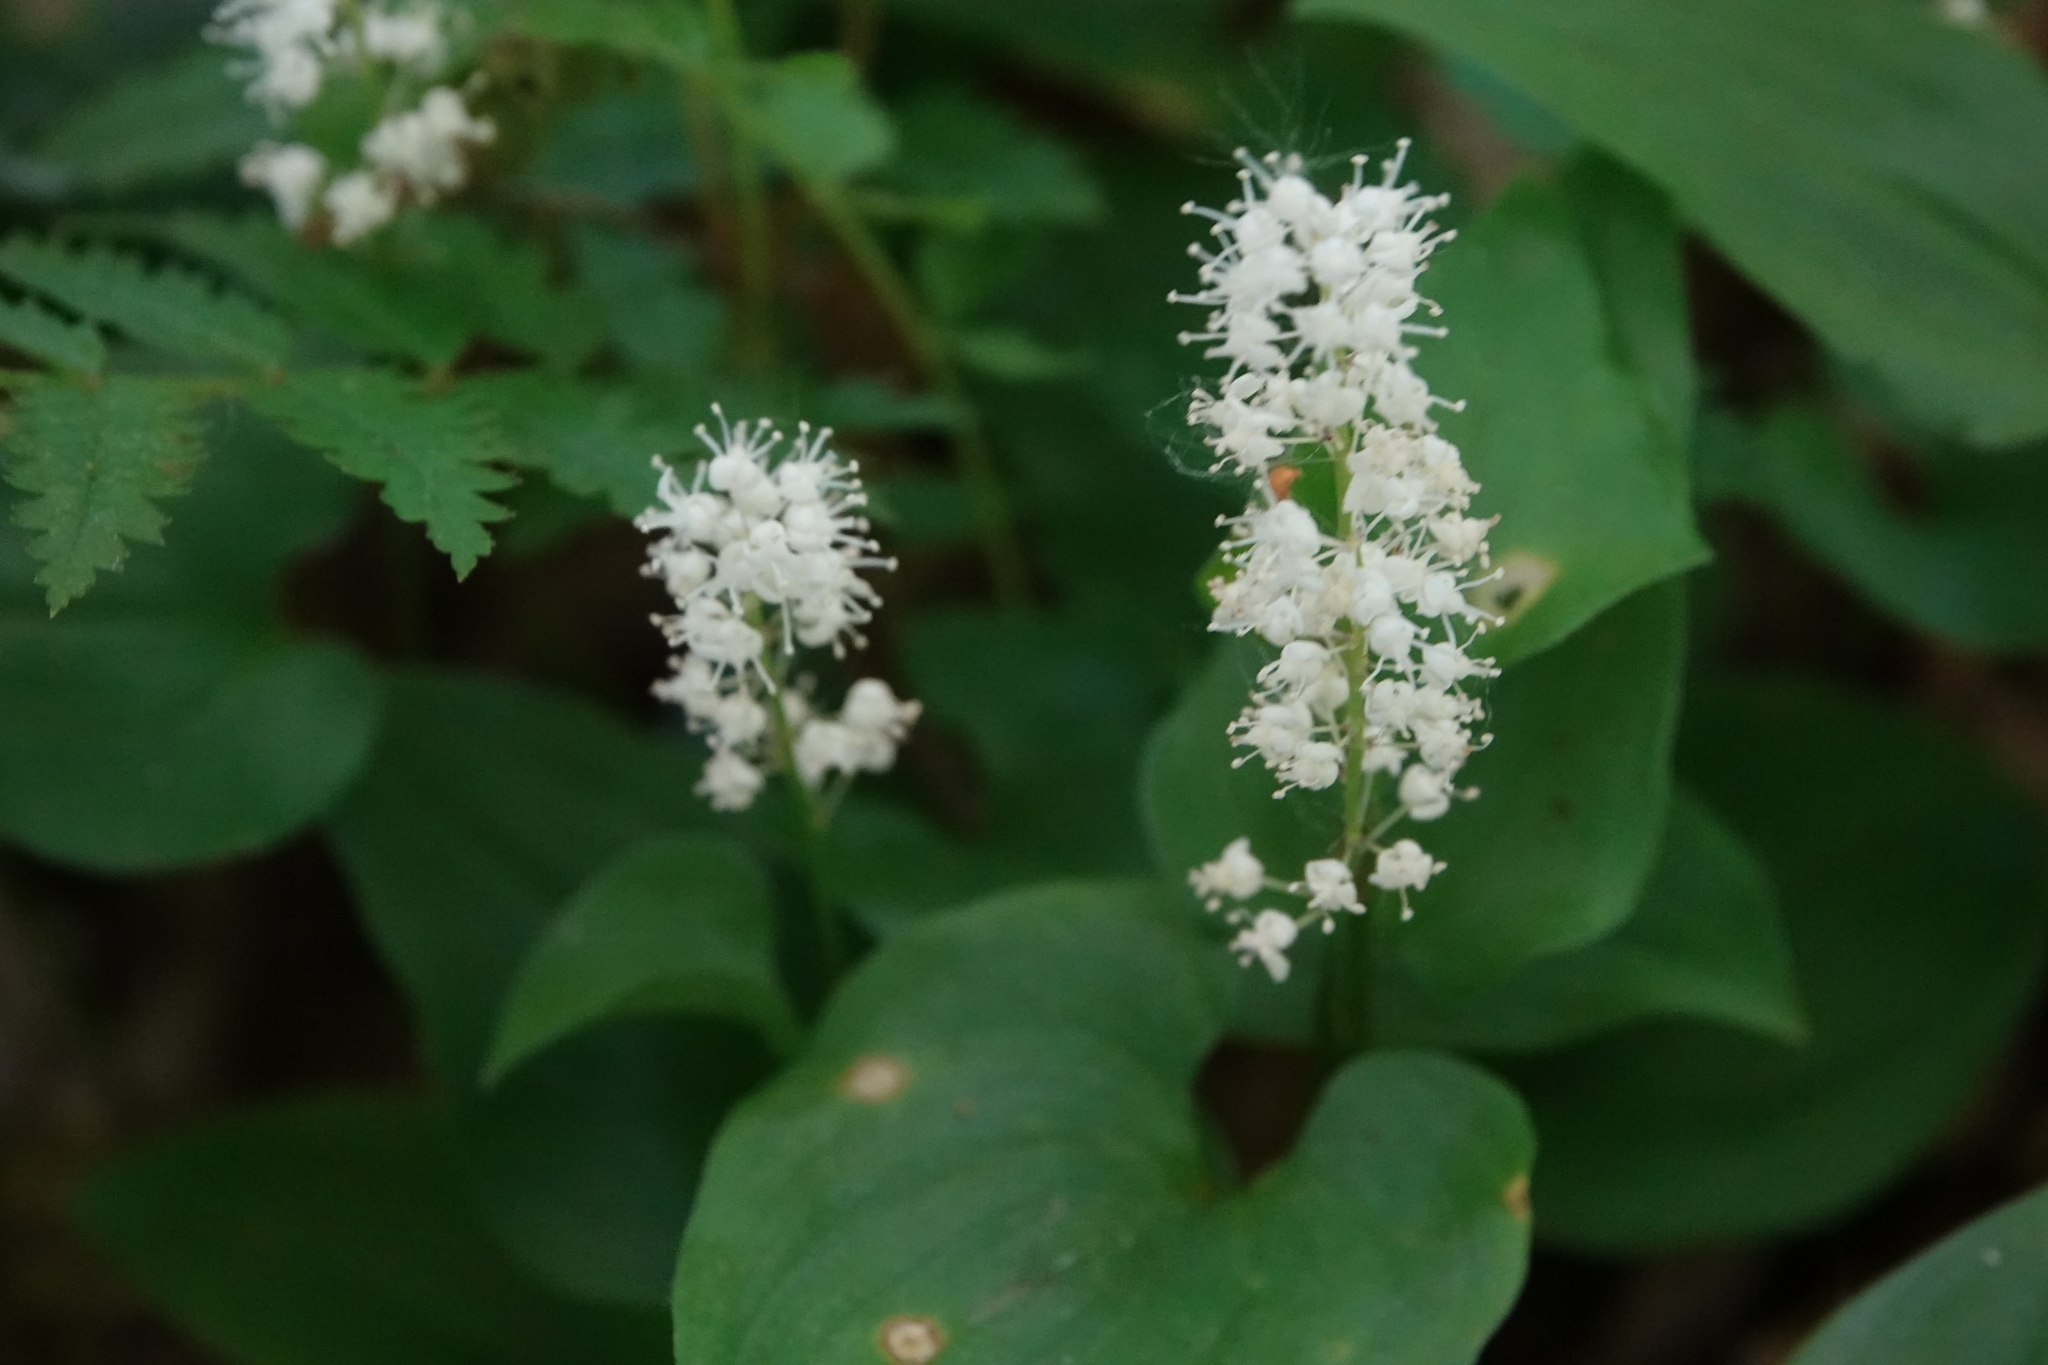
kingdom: Plantae
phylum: Tracheophyta
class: Liliopsida
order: Asparagales
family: Asparagaceae
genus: Maianthemum
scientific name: Maianthemum bifolium
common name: May lily
